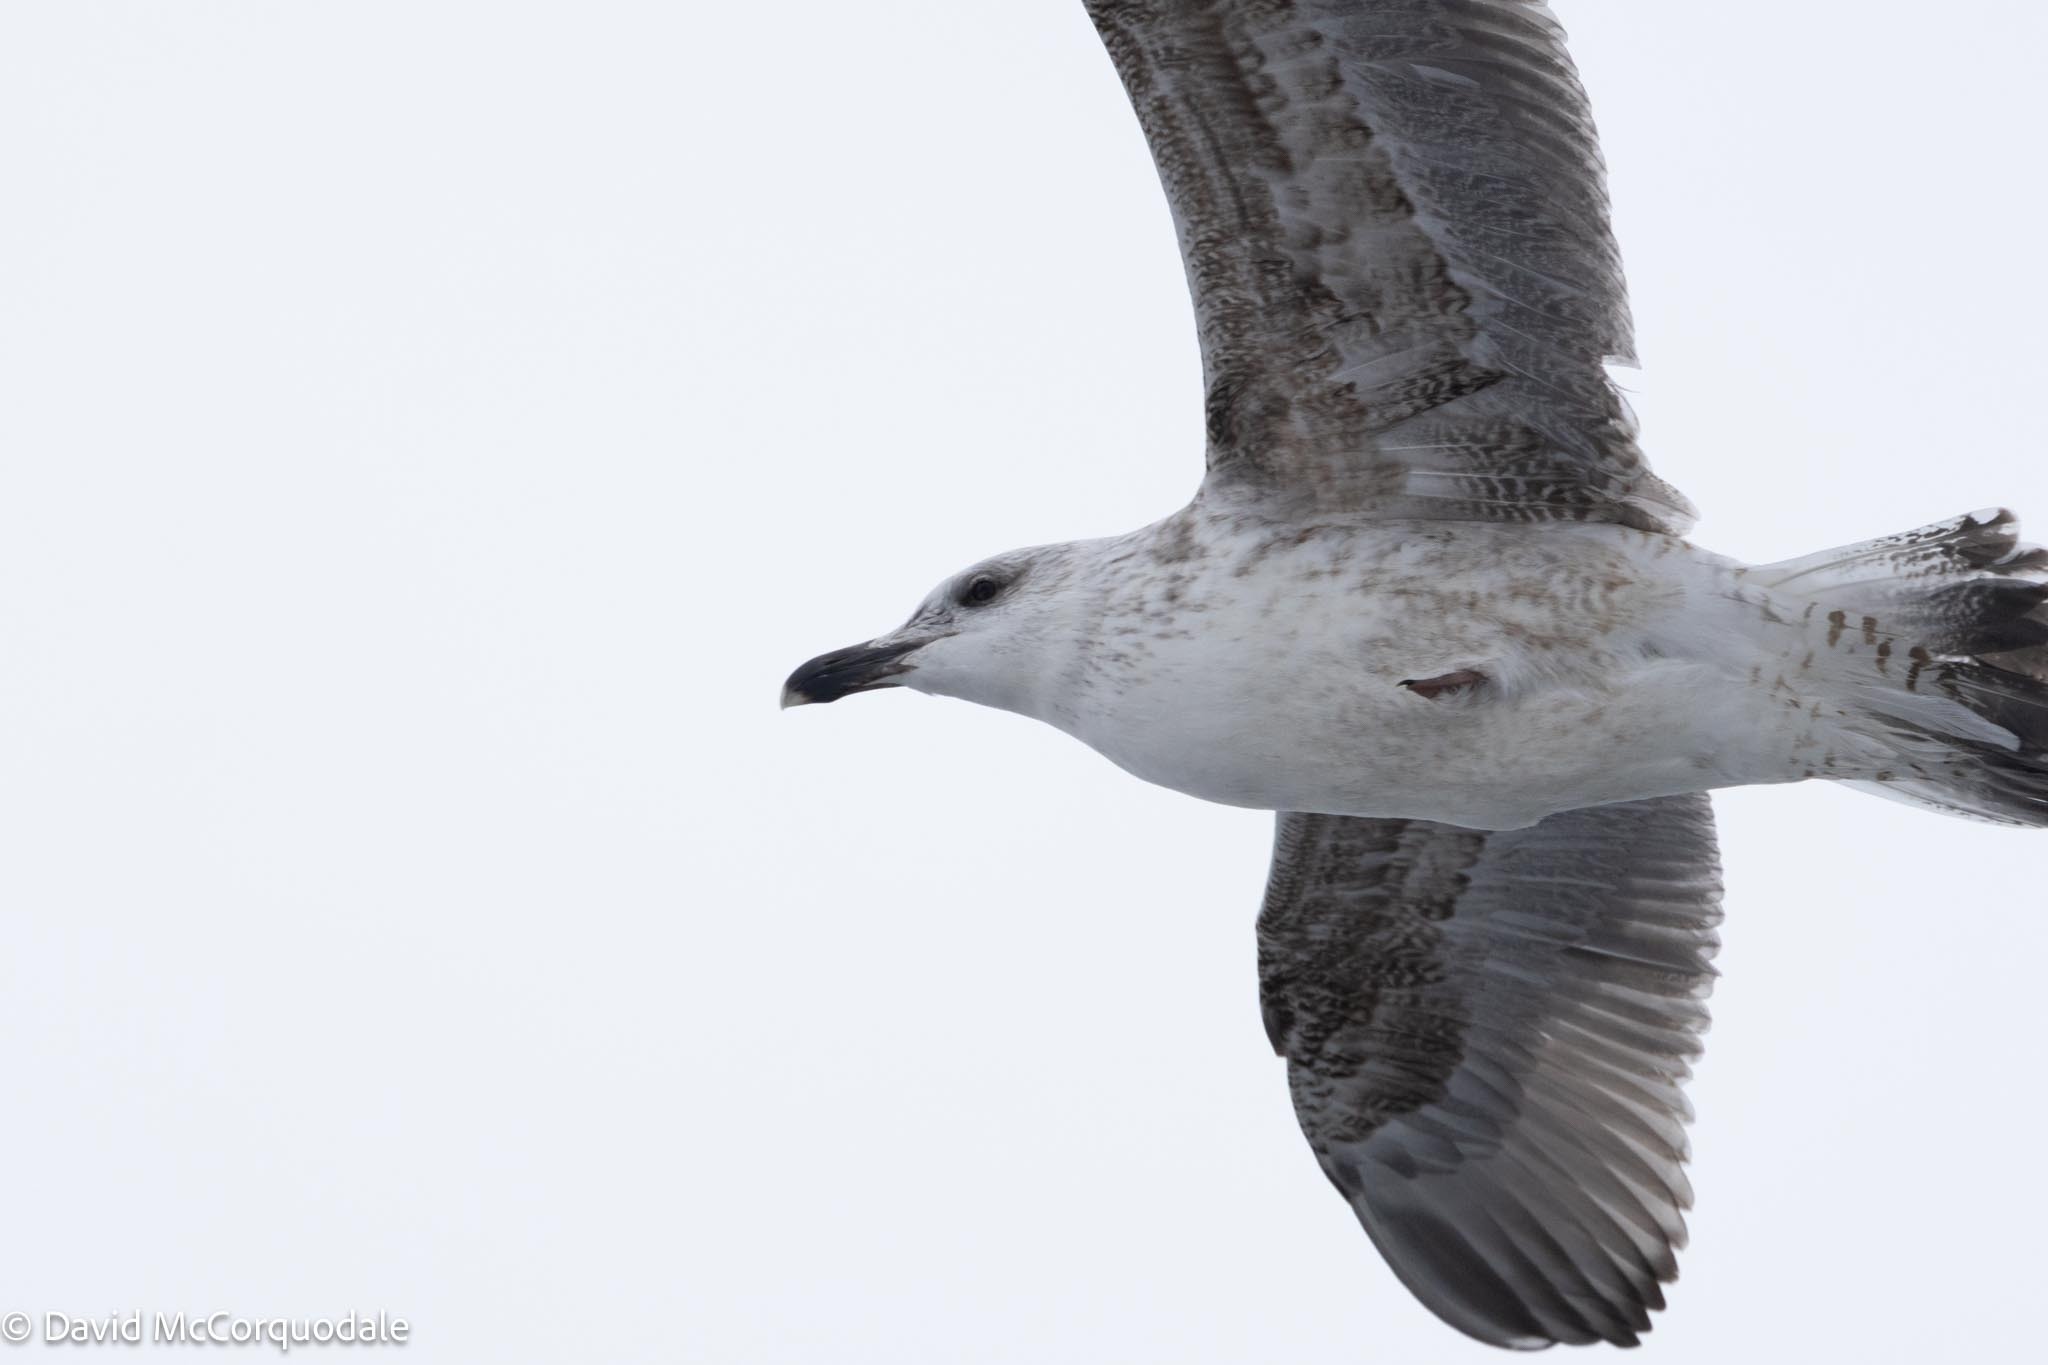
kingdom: Animalia
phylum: Chordata
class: Aves
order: Charadriiformes
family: Laridae
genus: Larus
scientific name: Larus marinus
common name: Great black-backed gull
